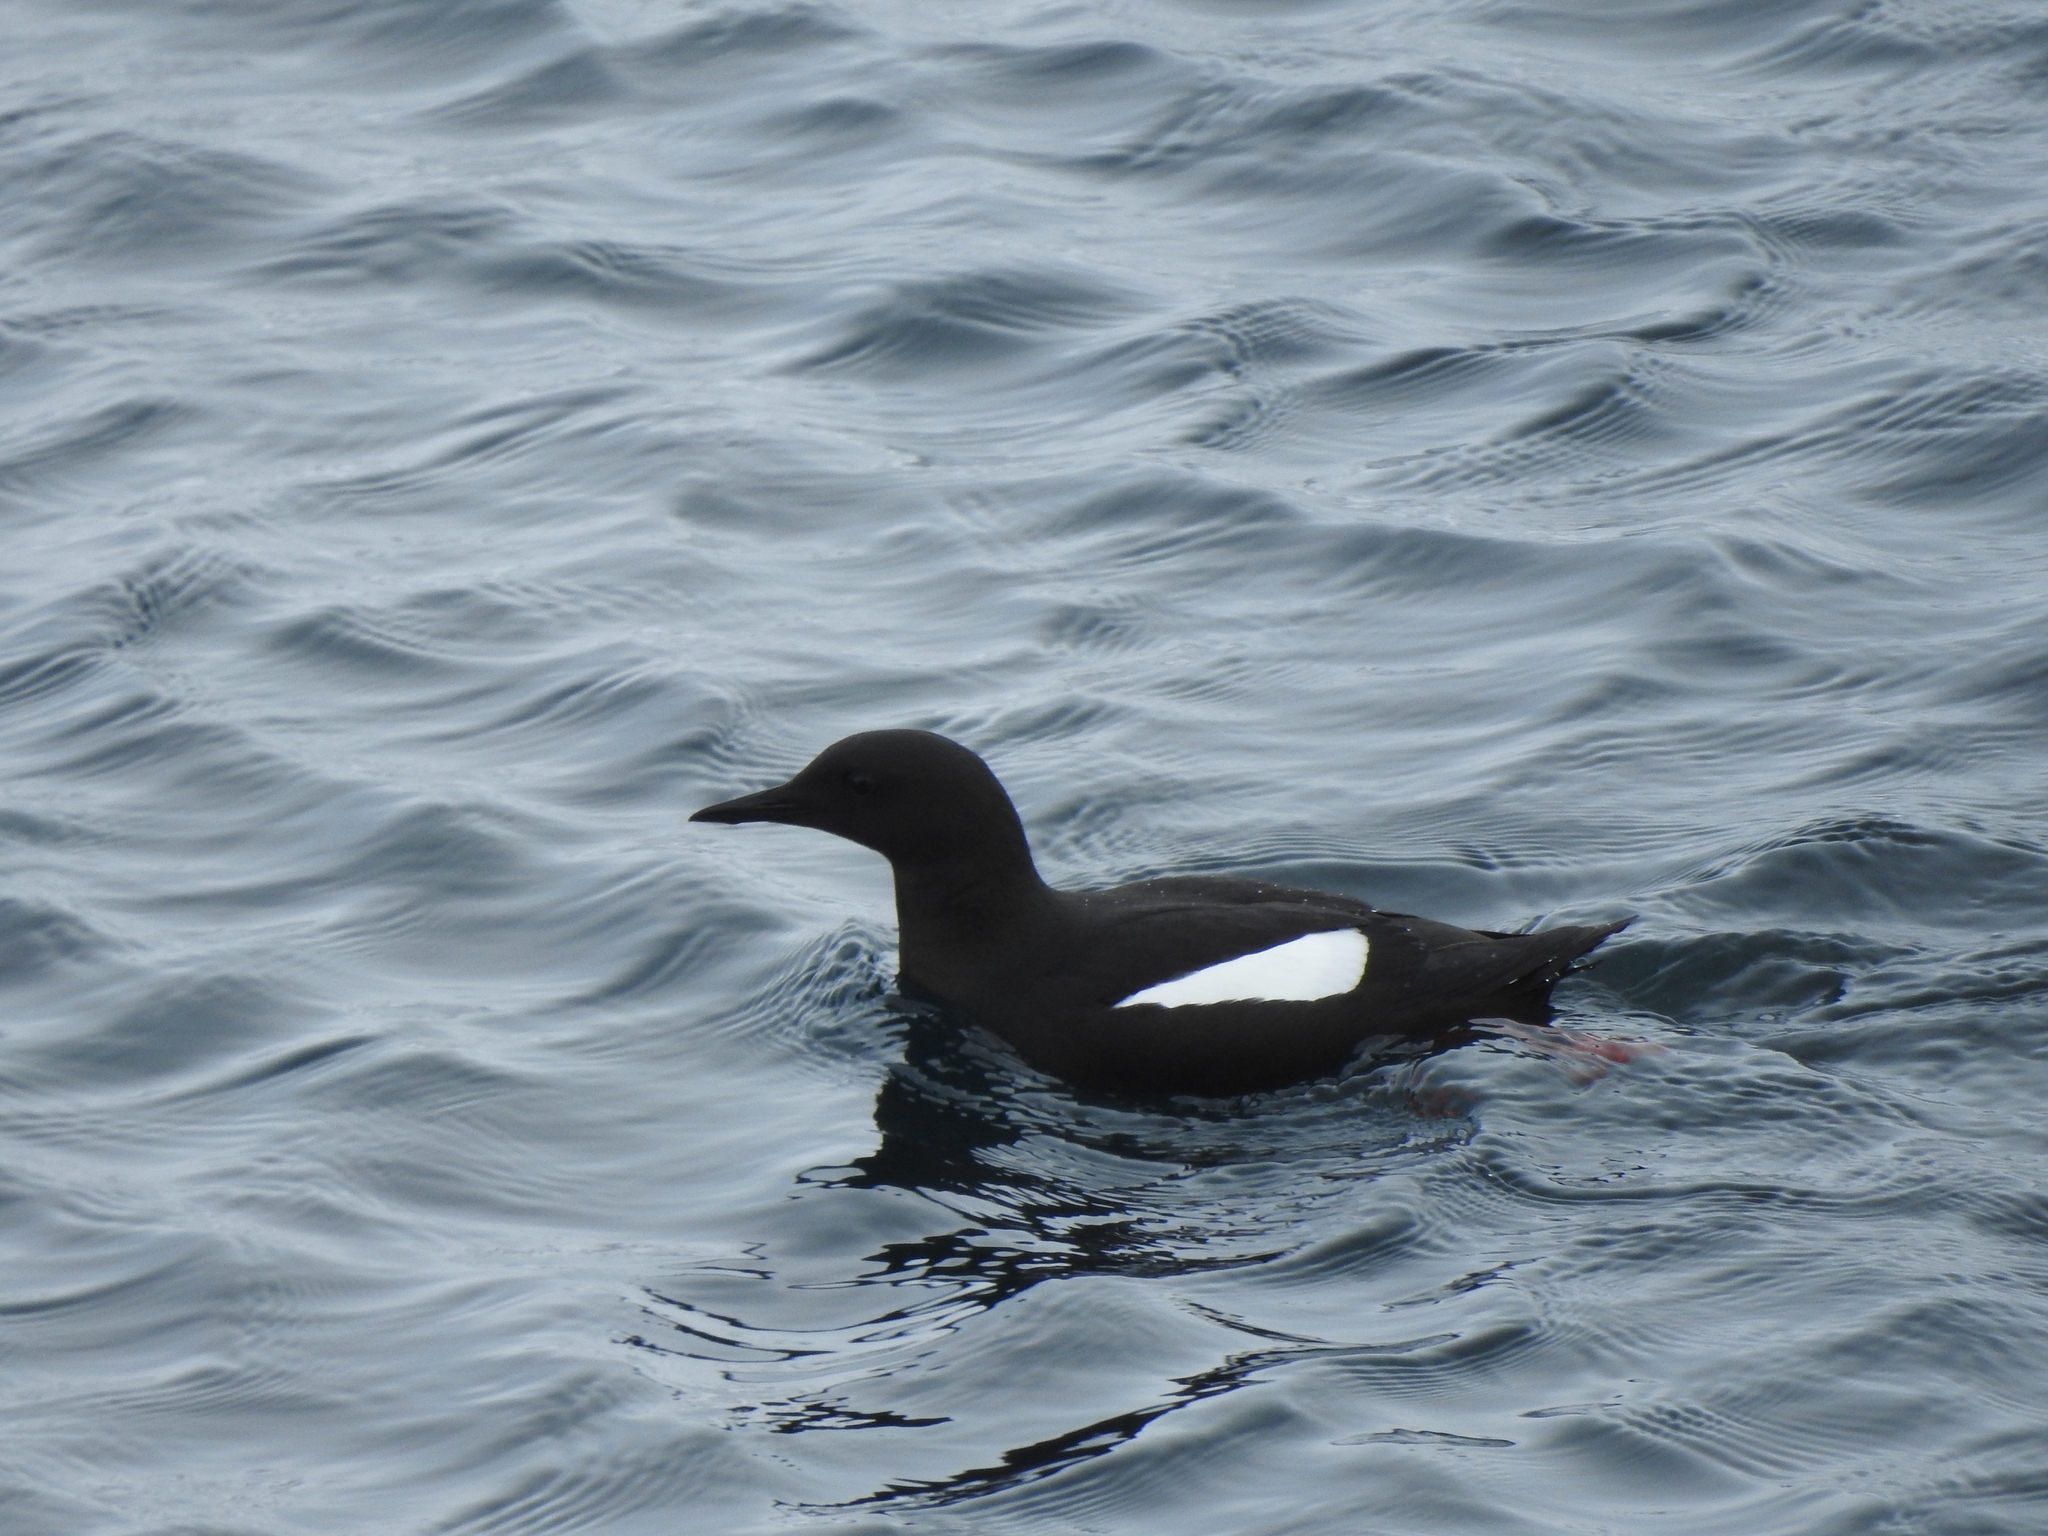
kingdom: Animalia
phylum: Chordata
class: Aves
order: Charadriiformes
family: Alcidae
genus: Cepphus
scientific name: Cepphus grylle
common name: Black guillemot
